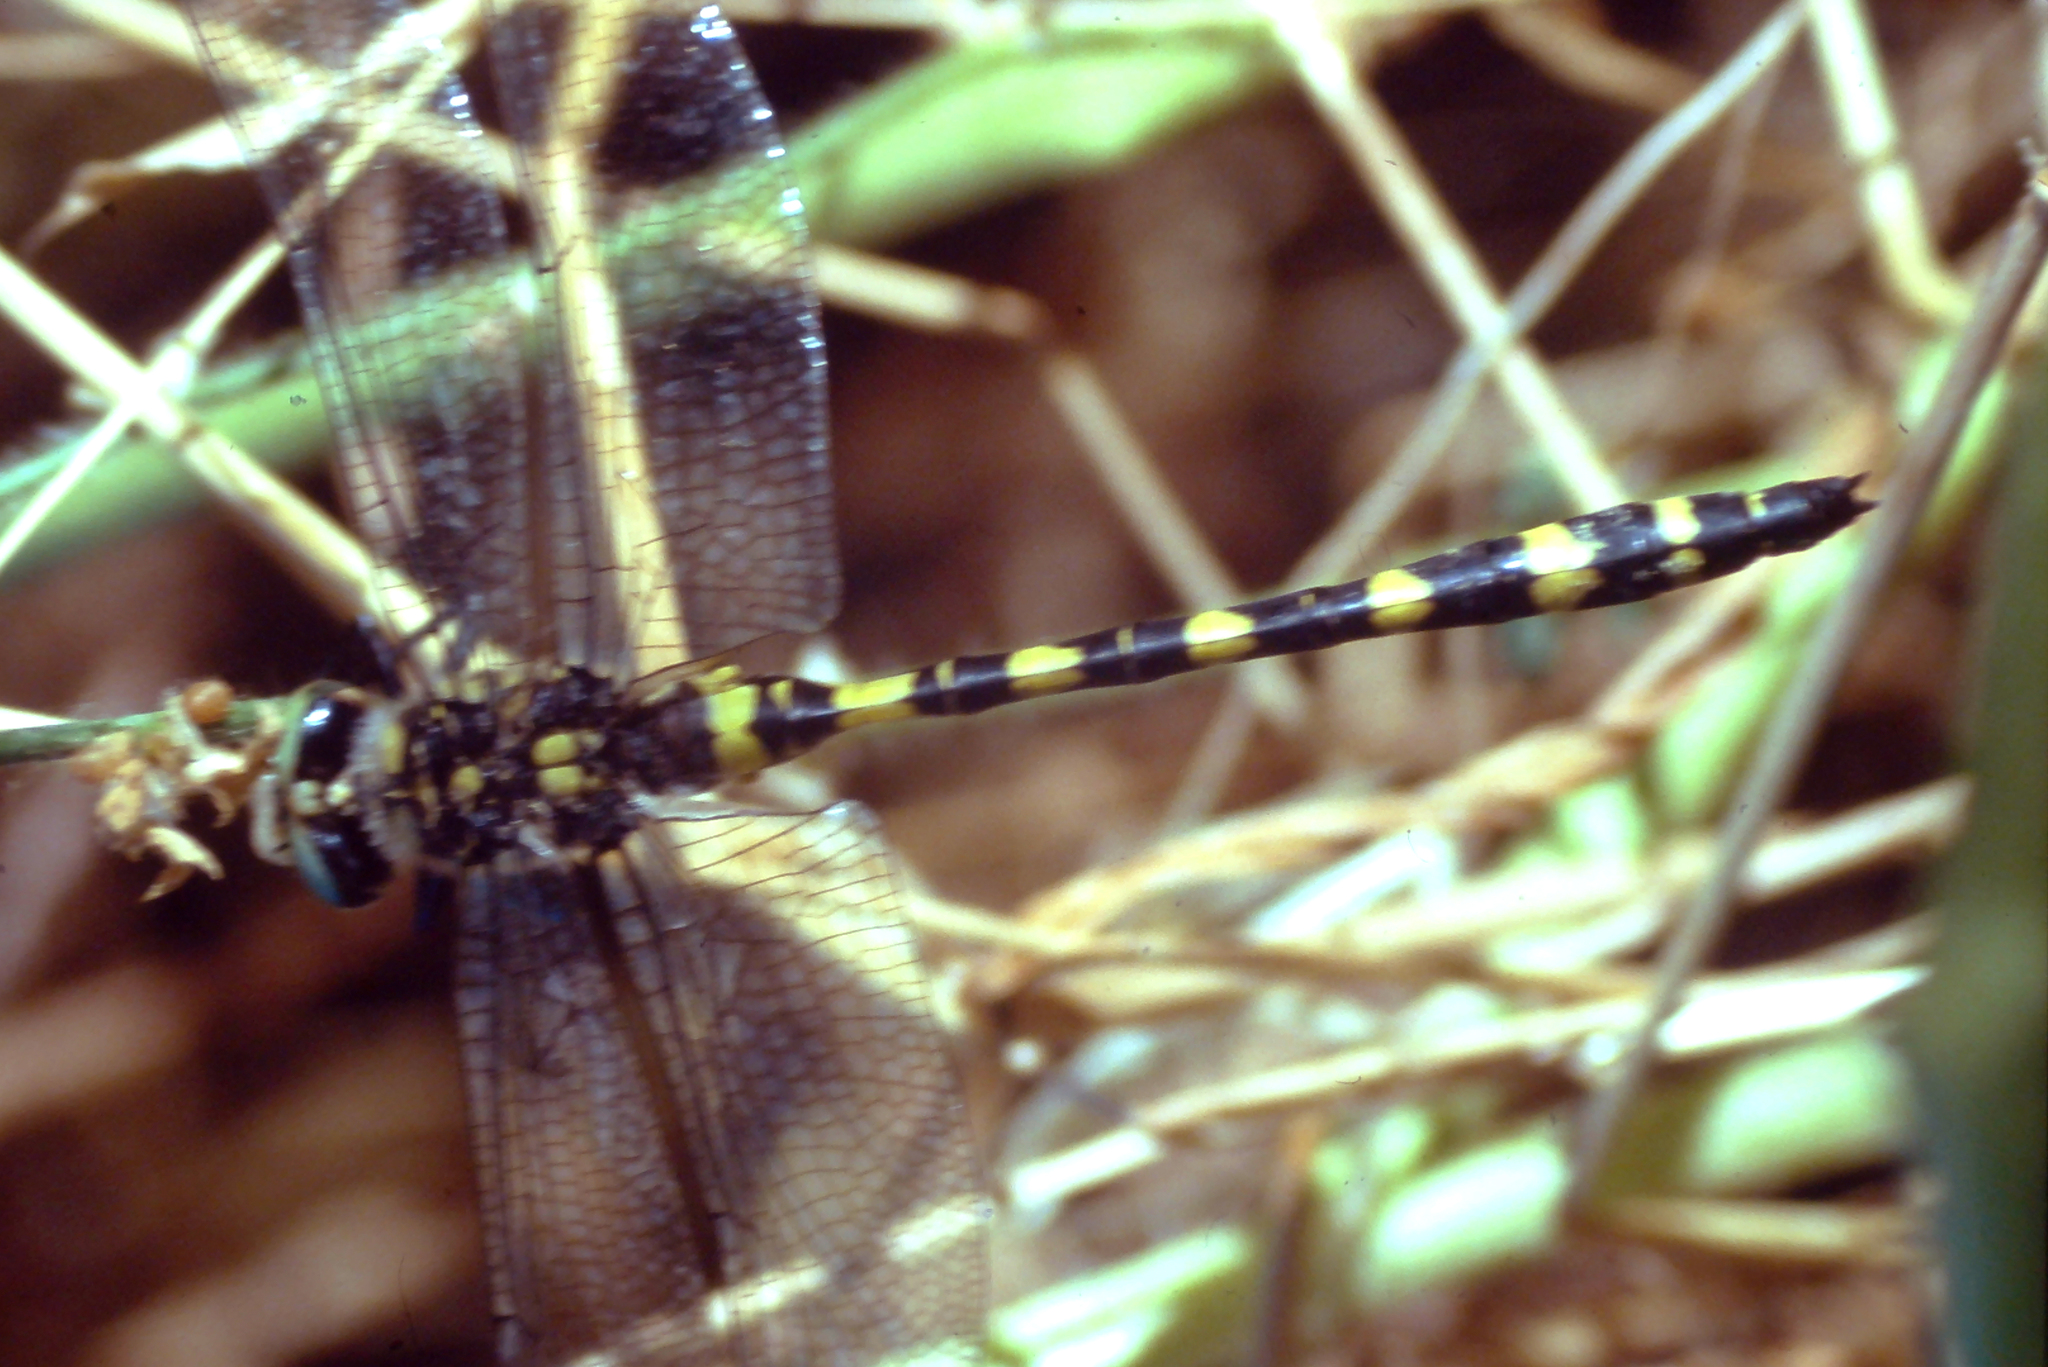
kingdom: Animalia
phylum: Arthropoda
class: Insecta
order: Odonata
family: Cordulegastridae
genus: Cordulegaster
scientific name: Cordulegaster
